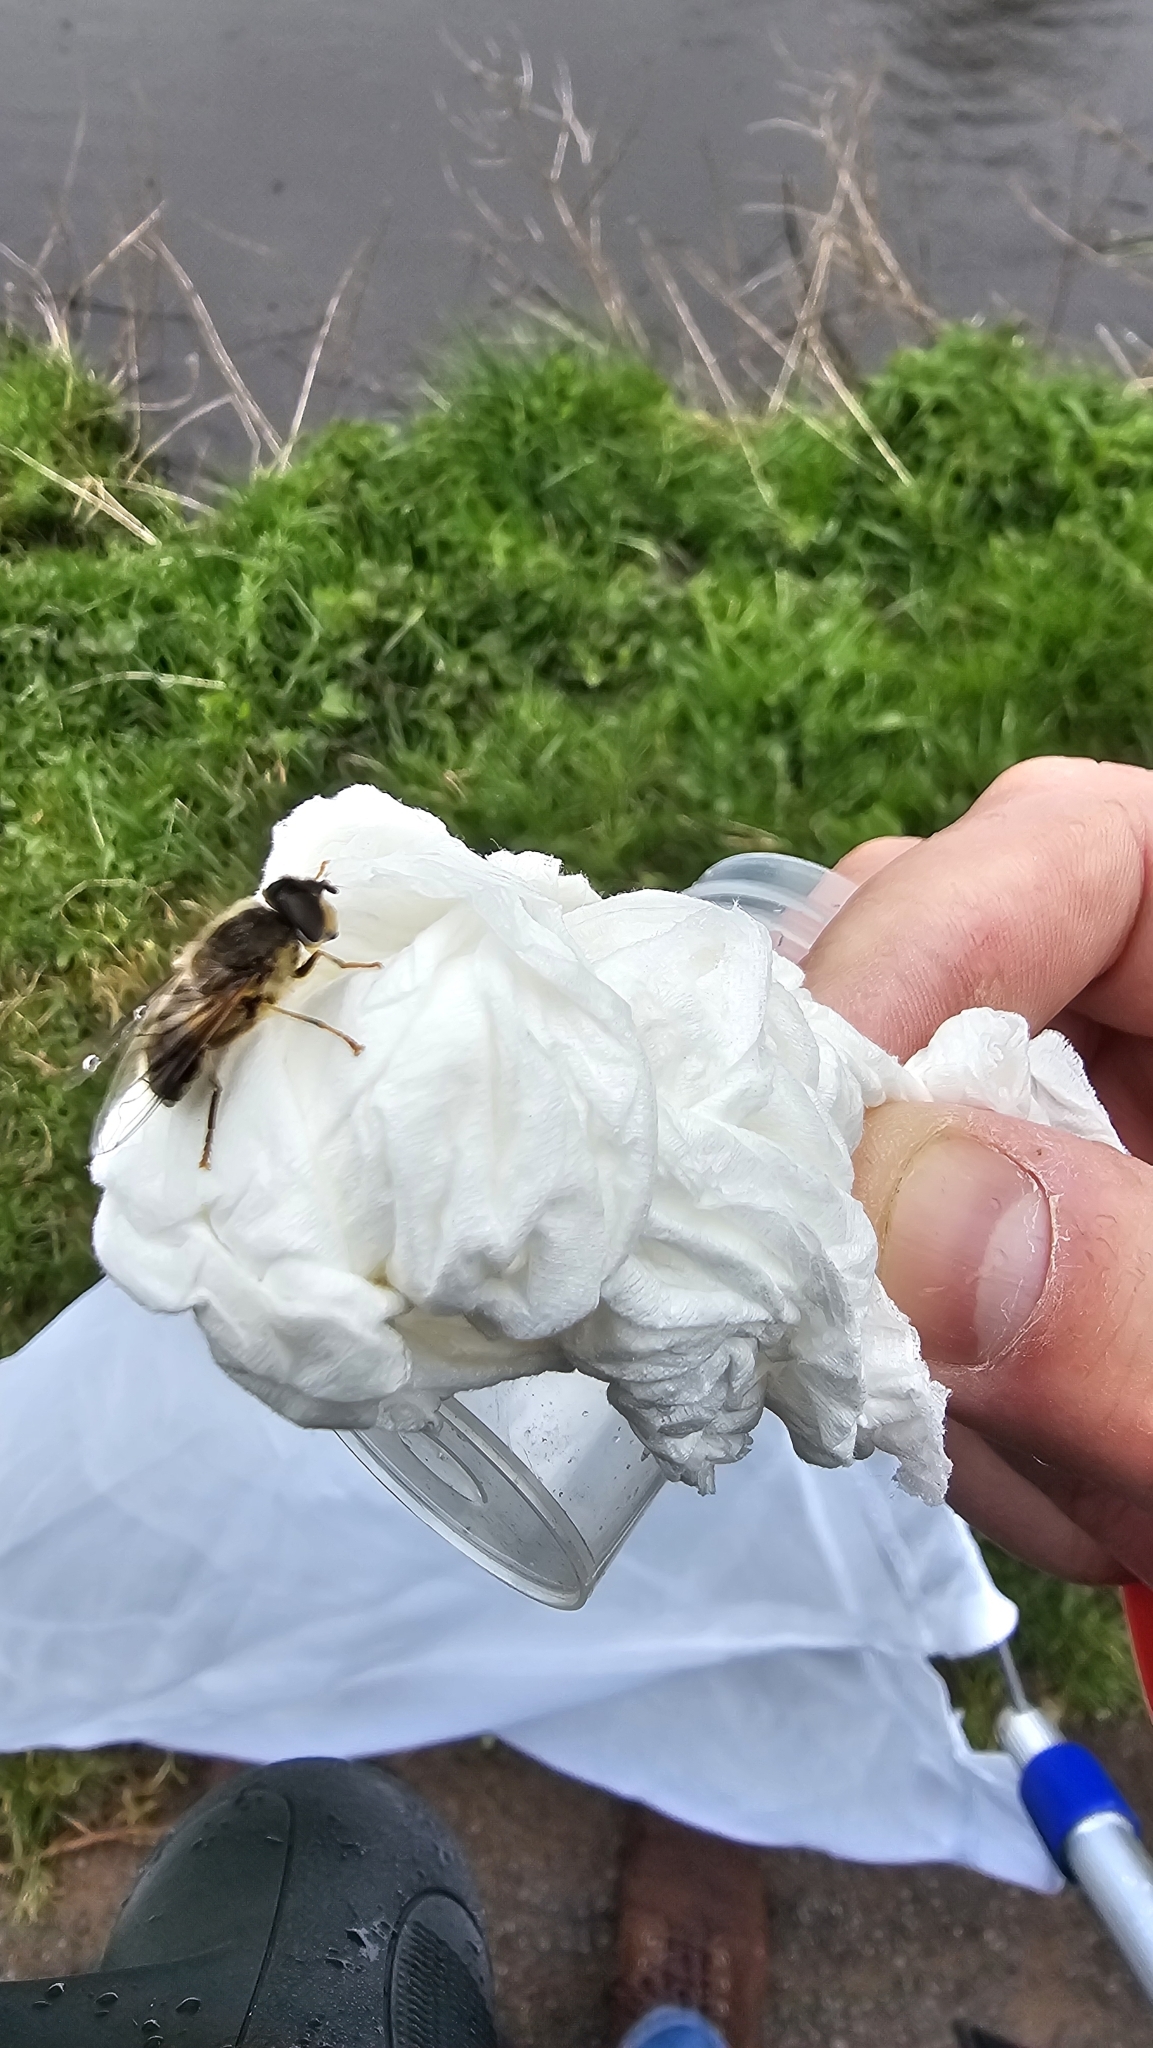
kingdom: Animalia
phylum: Arthropoda
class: Insecta
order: Diptera
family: Syrphidae
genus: Eristalis
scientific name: Eristalis pertinax
